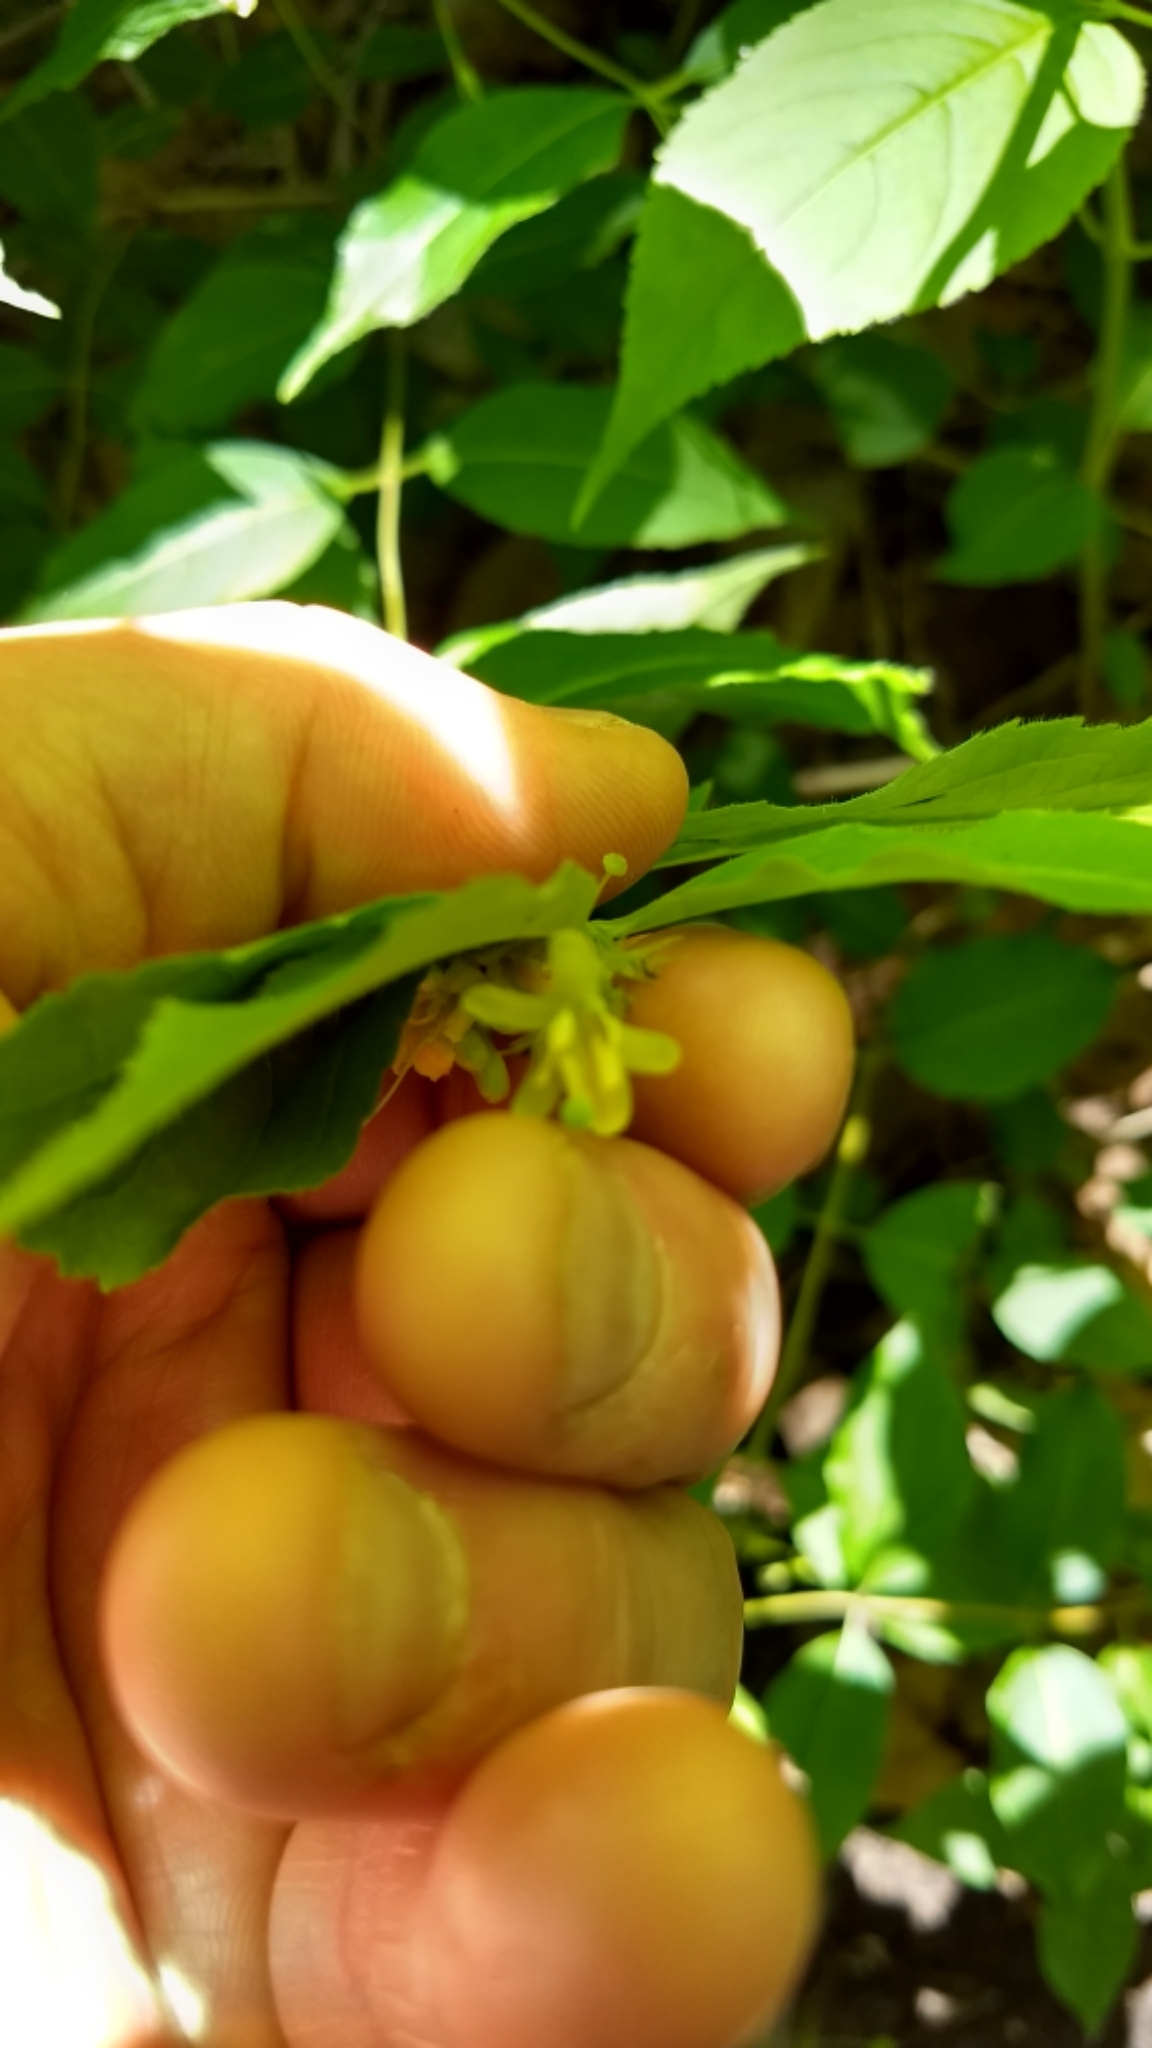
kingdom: Plantae
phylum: Tracheophyta
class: Magnoliopsida
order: Dipsacales
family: Caprifoliaceae
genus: Diervilla
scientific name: Diervilla lonicera
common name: Bush-honeysuckle
